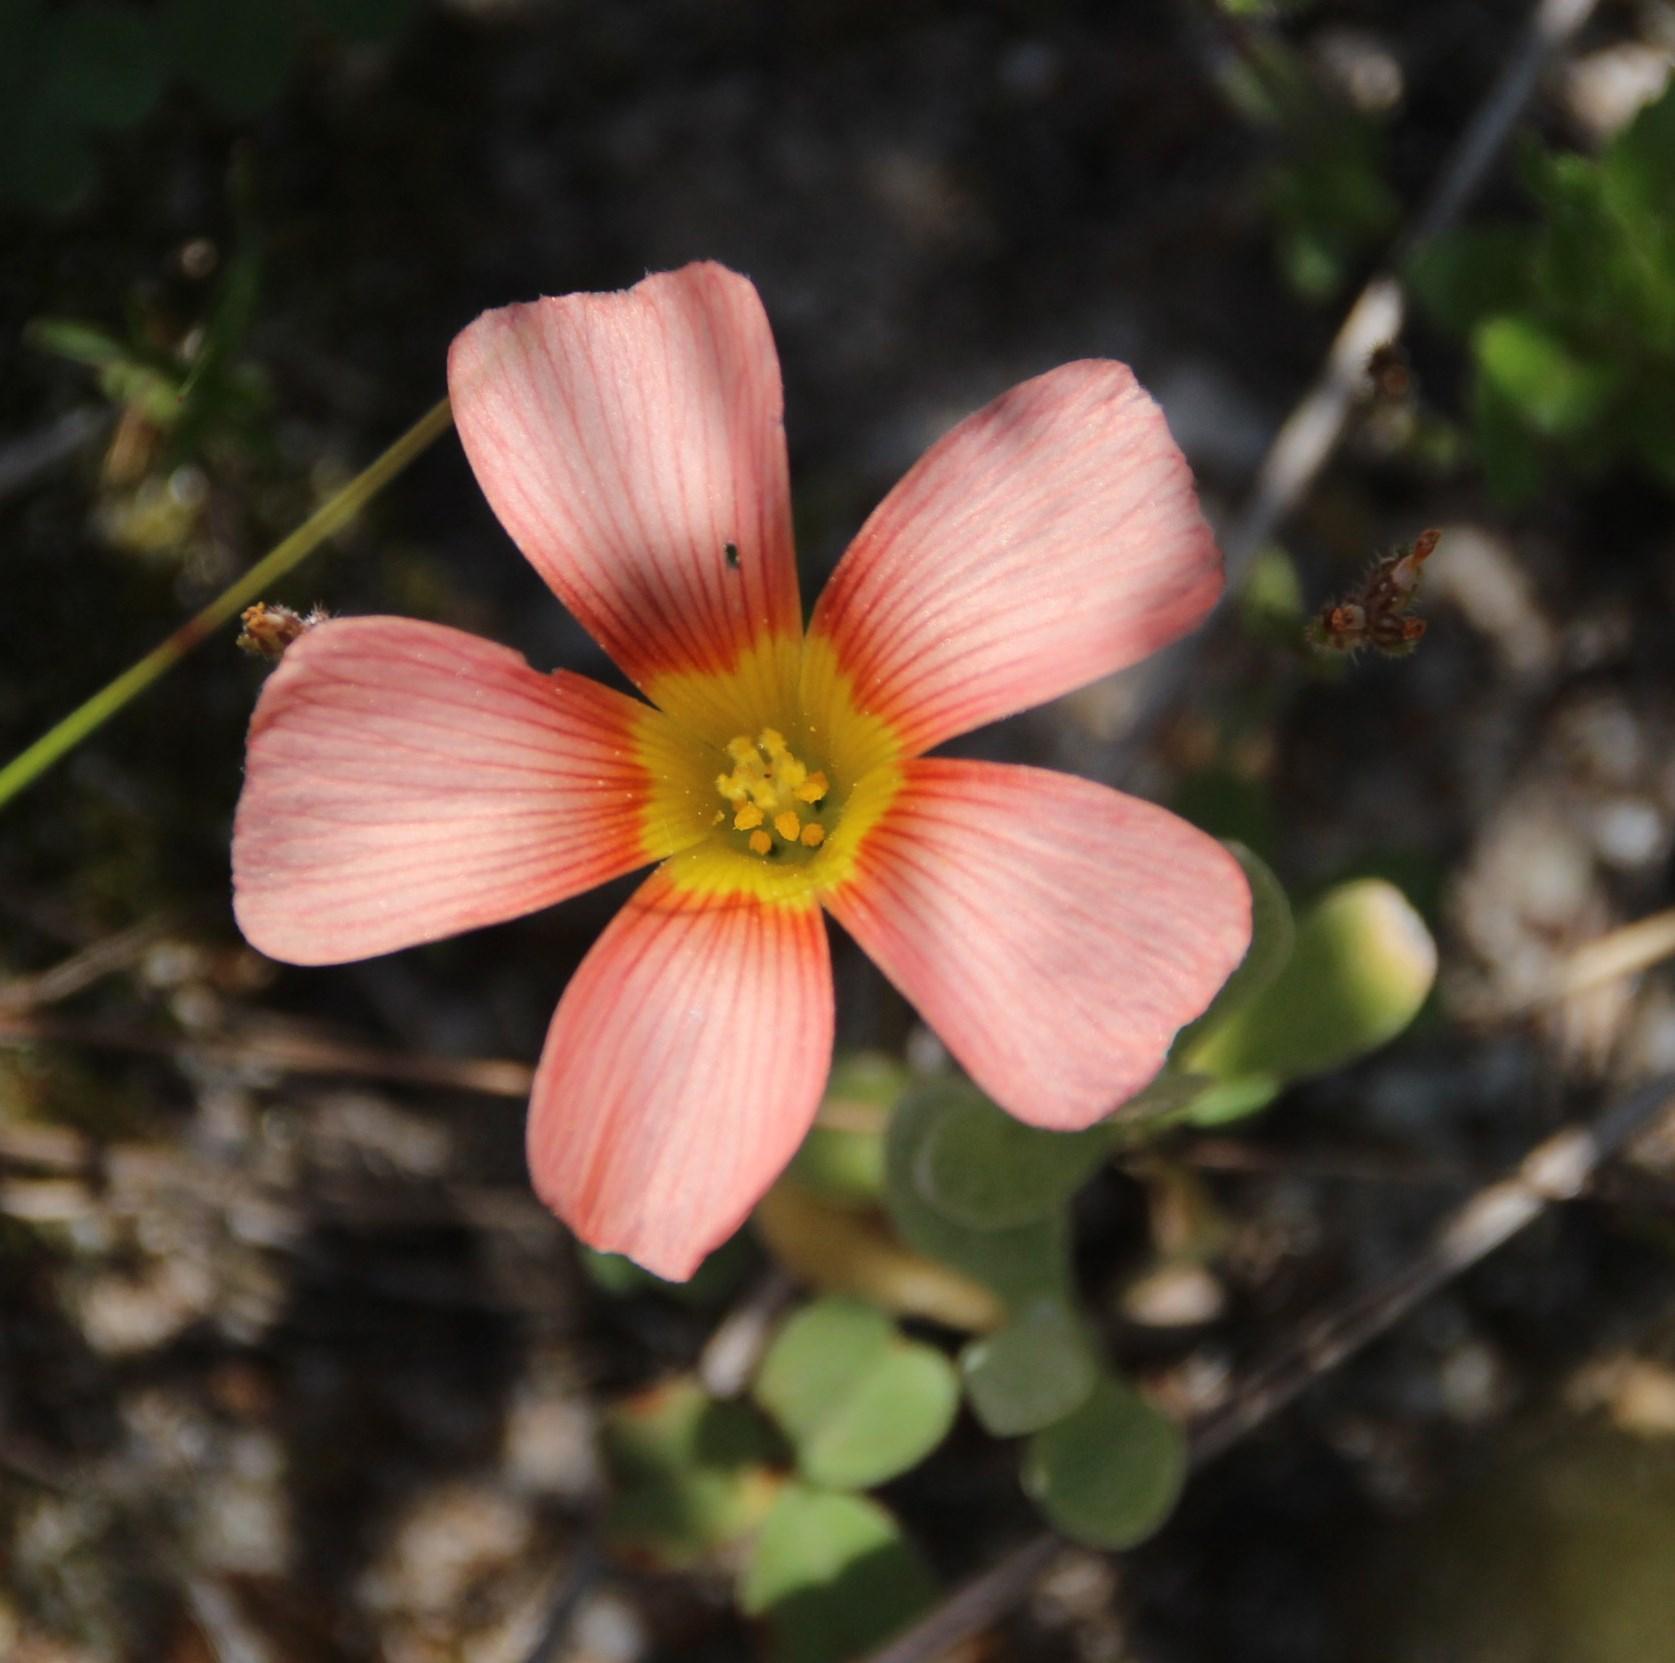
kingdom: Plantae
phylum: Tracheophyta
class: Magnoliopsida
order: Oxalidales
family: Oxalidaceae
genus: Oxalis
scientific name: Oxalis obtusa
